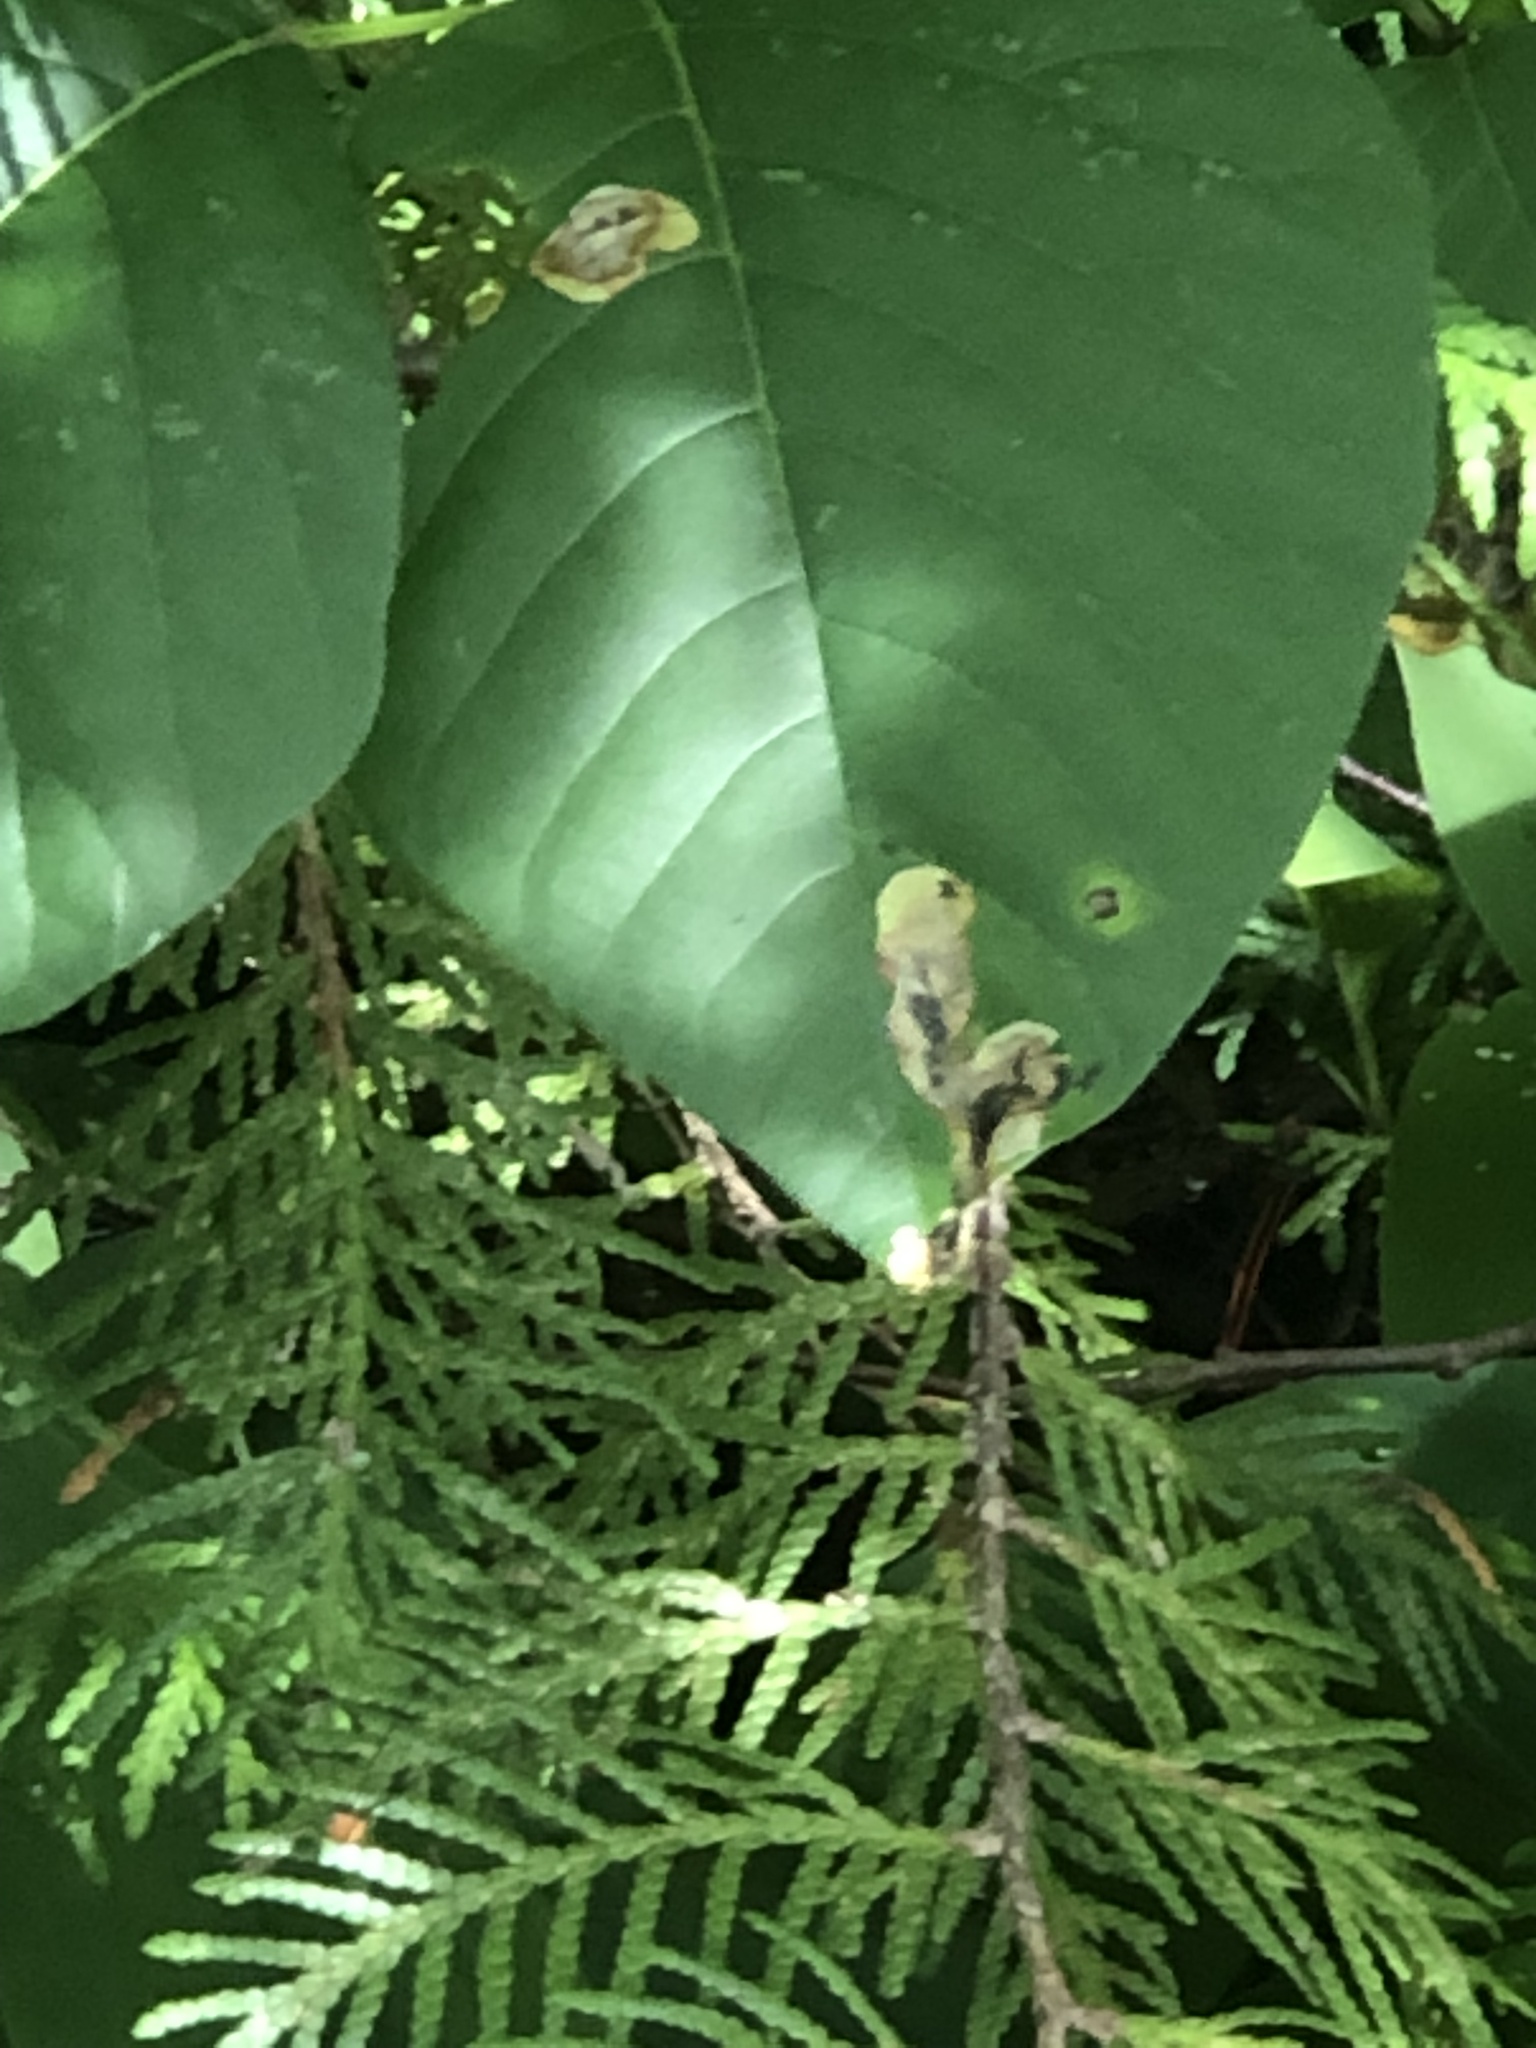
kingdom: Animalia
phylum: Arthropoda
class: Insecta
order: Lepidoptera
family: Gracillariidae
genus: Cameraria
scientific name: Cameraria guttifinitella
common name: Poison ivy leaf-miner moth
